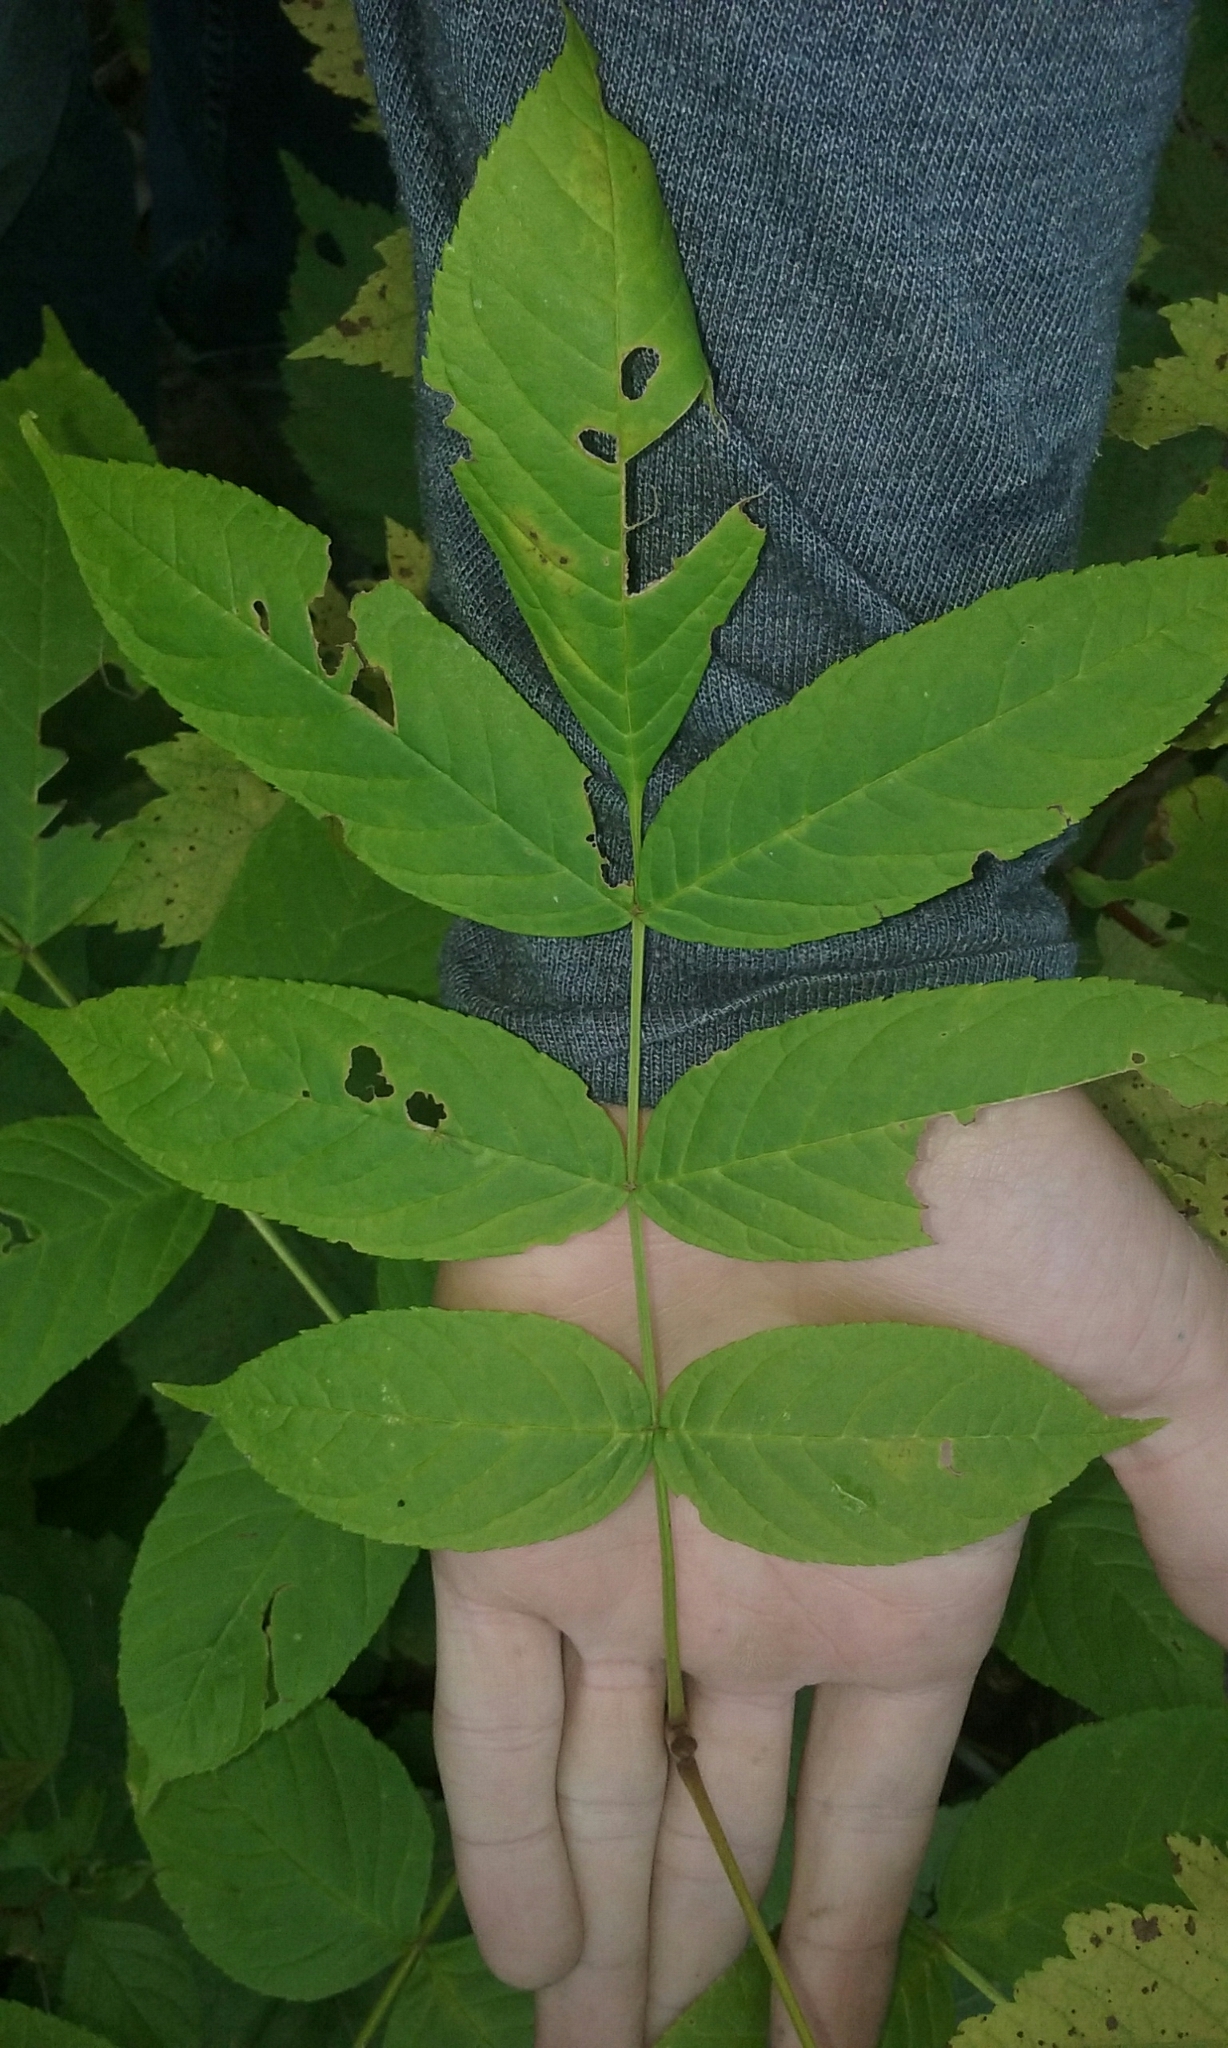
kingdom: Plantae
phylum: Tracheophyta
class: Magnoliopsida
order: Lamiales
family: Oleaceae
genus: Fraxinus
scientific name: Fraxinus nigra
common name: Black ash
